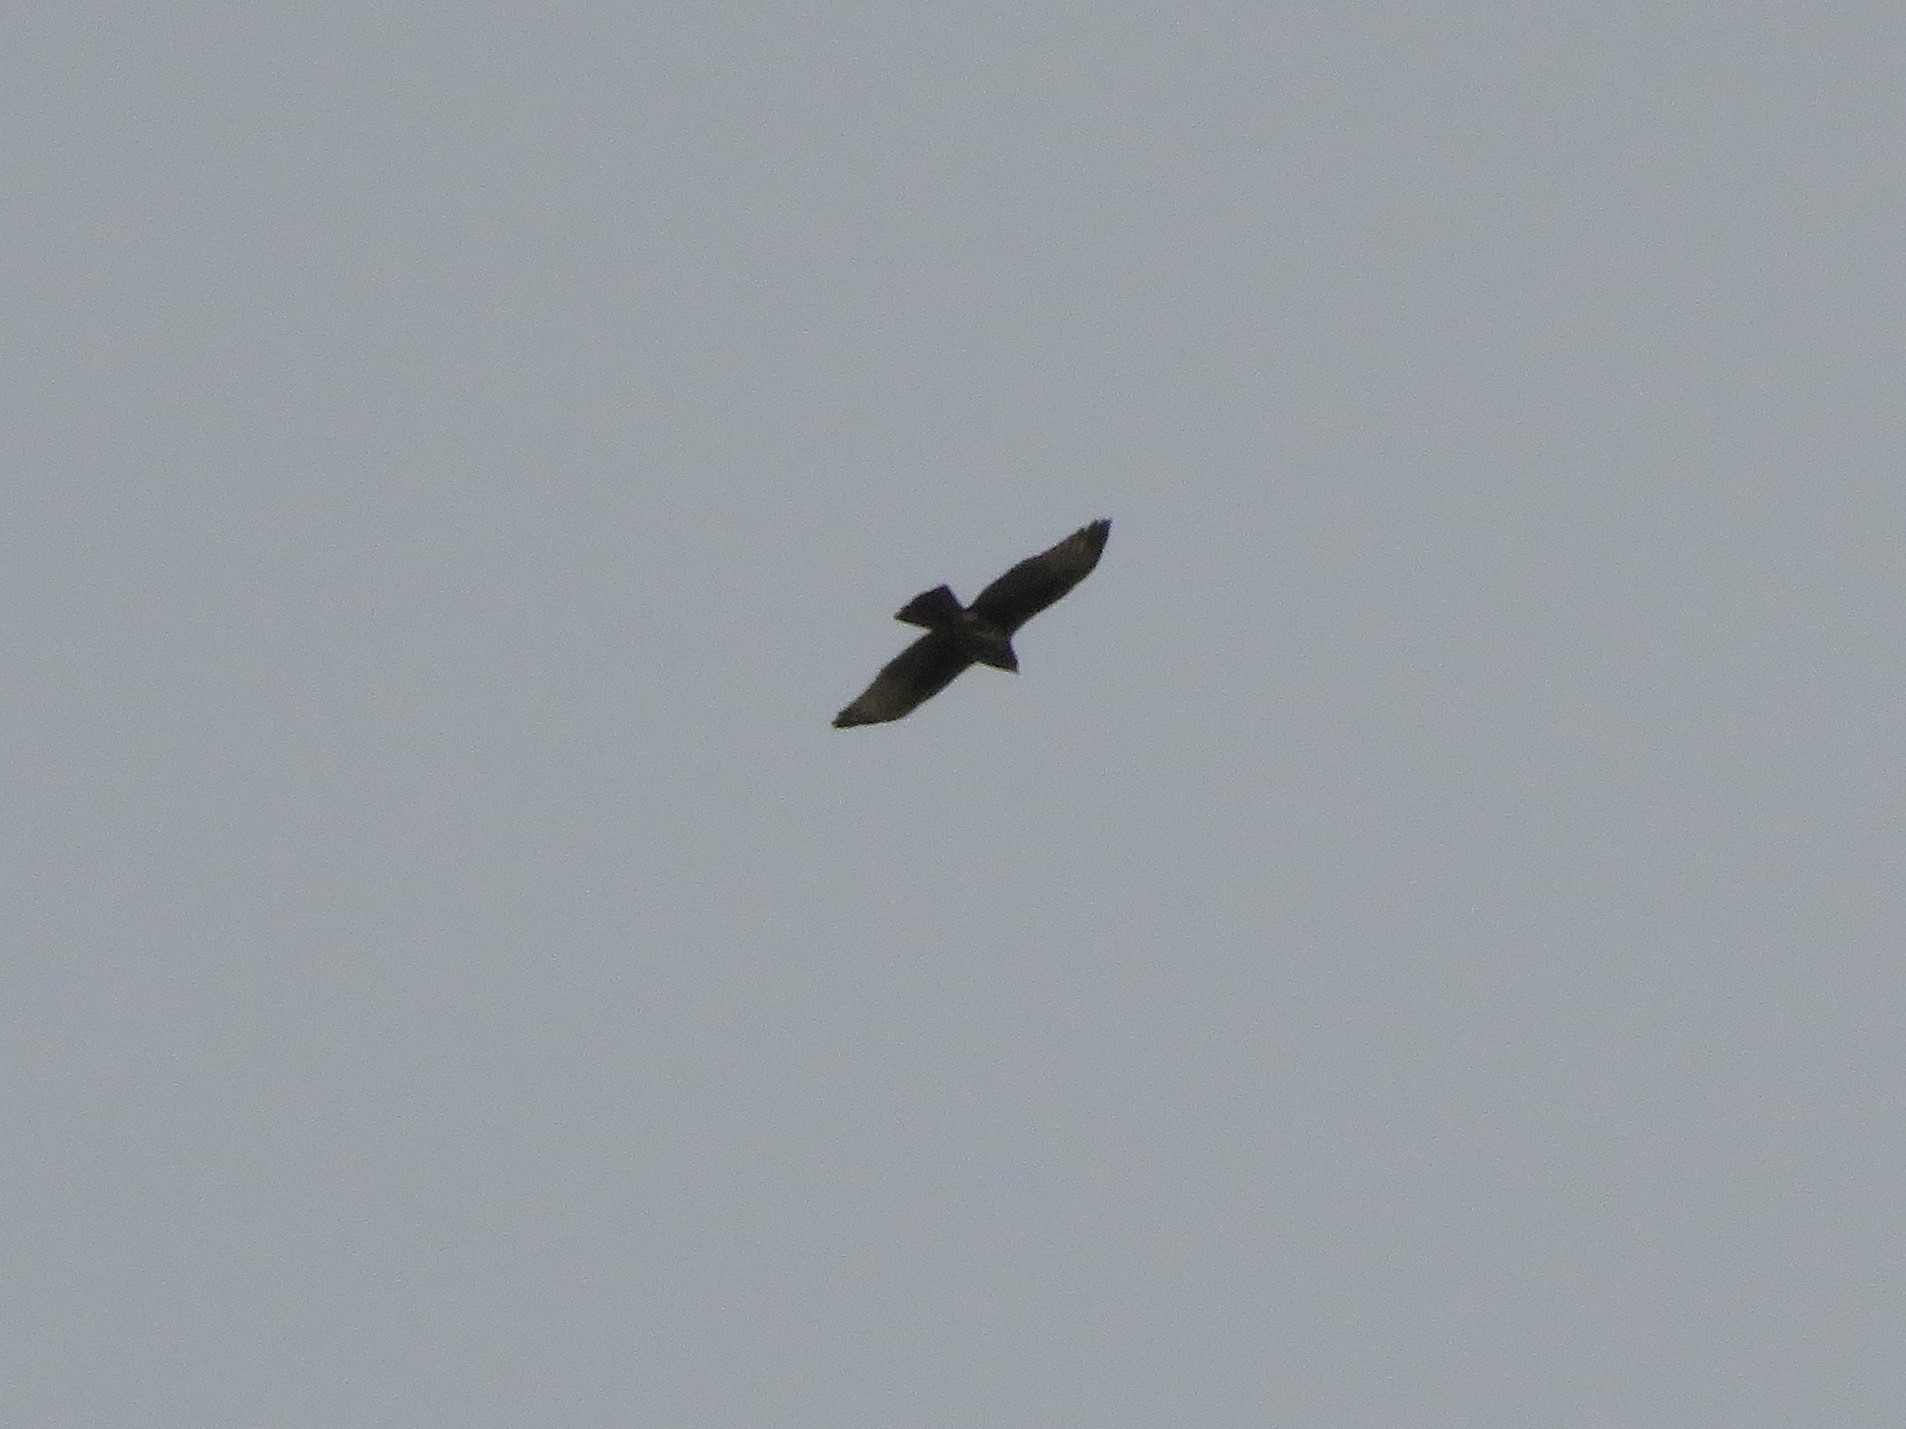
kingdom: Animalia
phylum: Chordata
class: Aves
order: Accipitriformes
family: Accipitridae
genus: Parabuteo
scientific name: Parabuteo unicinctus
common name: Harris's hawk
